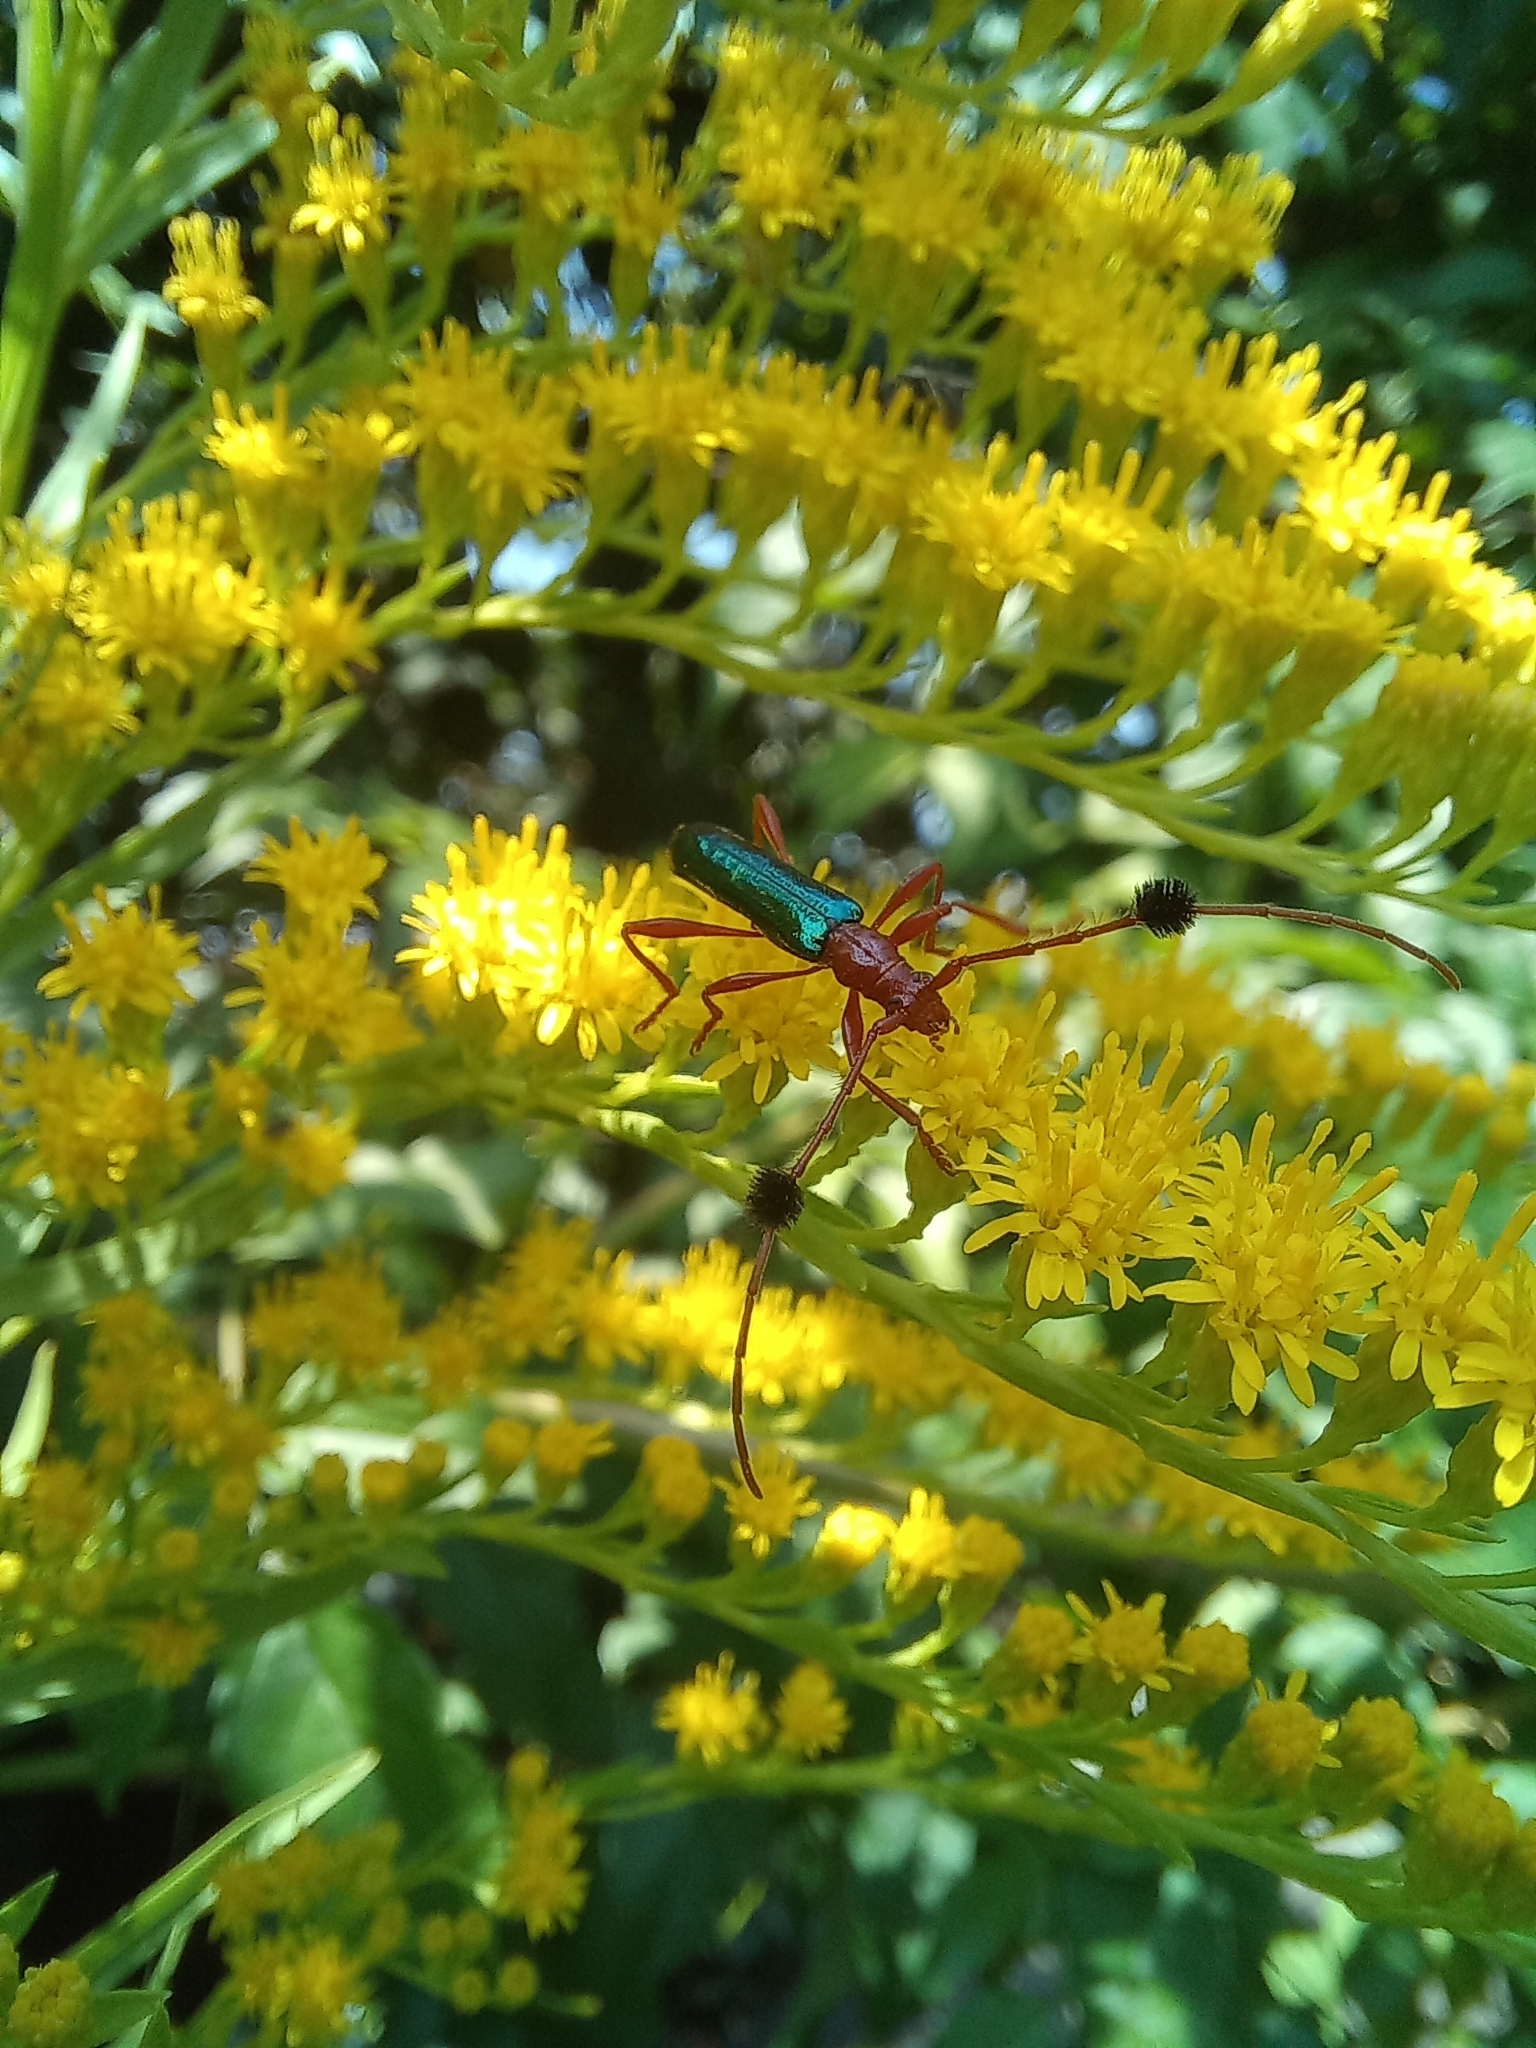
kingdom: Animalia
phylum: Arthropoda
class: Insecta
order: Coleoptera
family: Cerambycidae
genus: Paromoeocerus
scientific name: Paromoeocerus barbicornis
